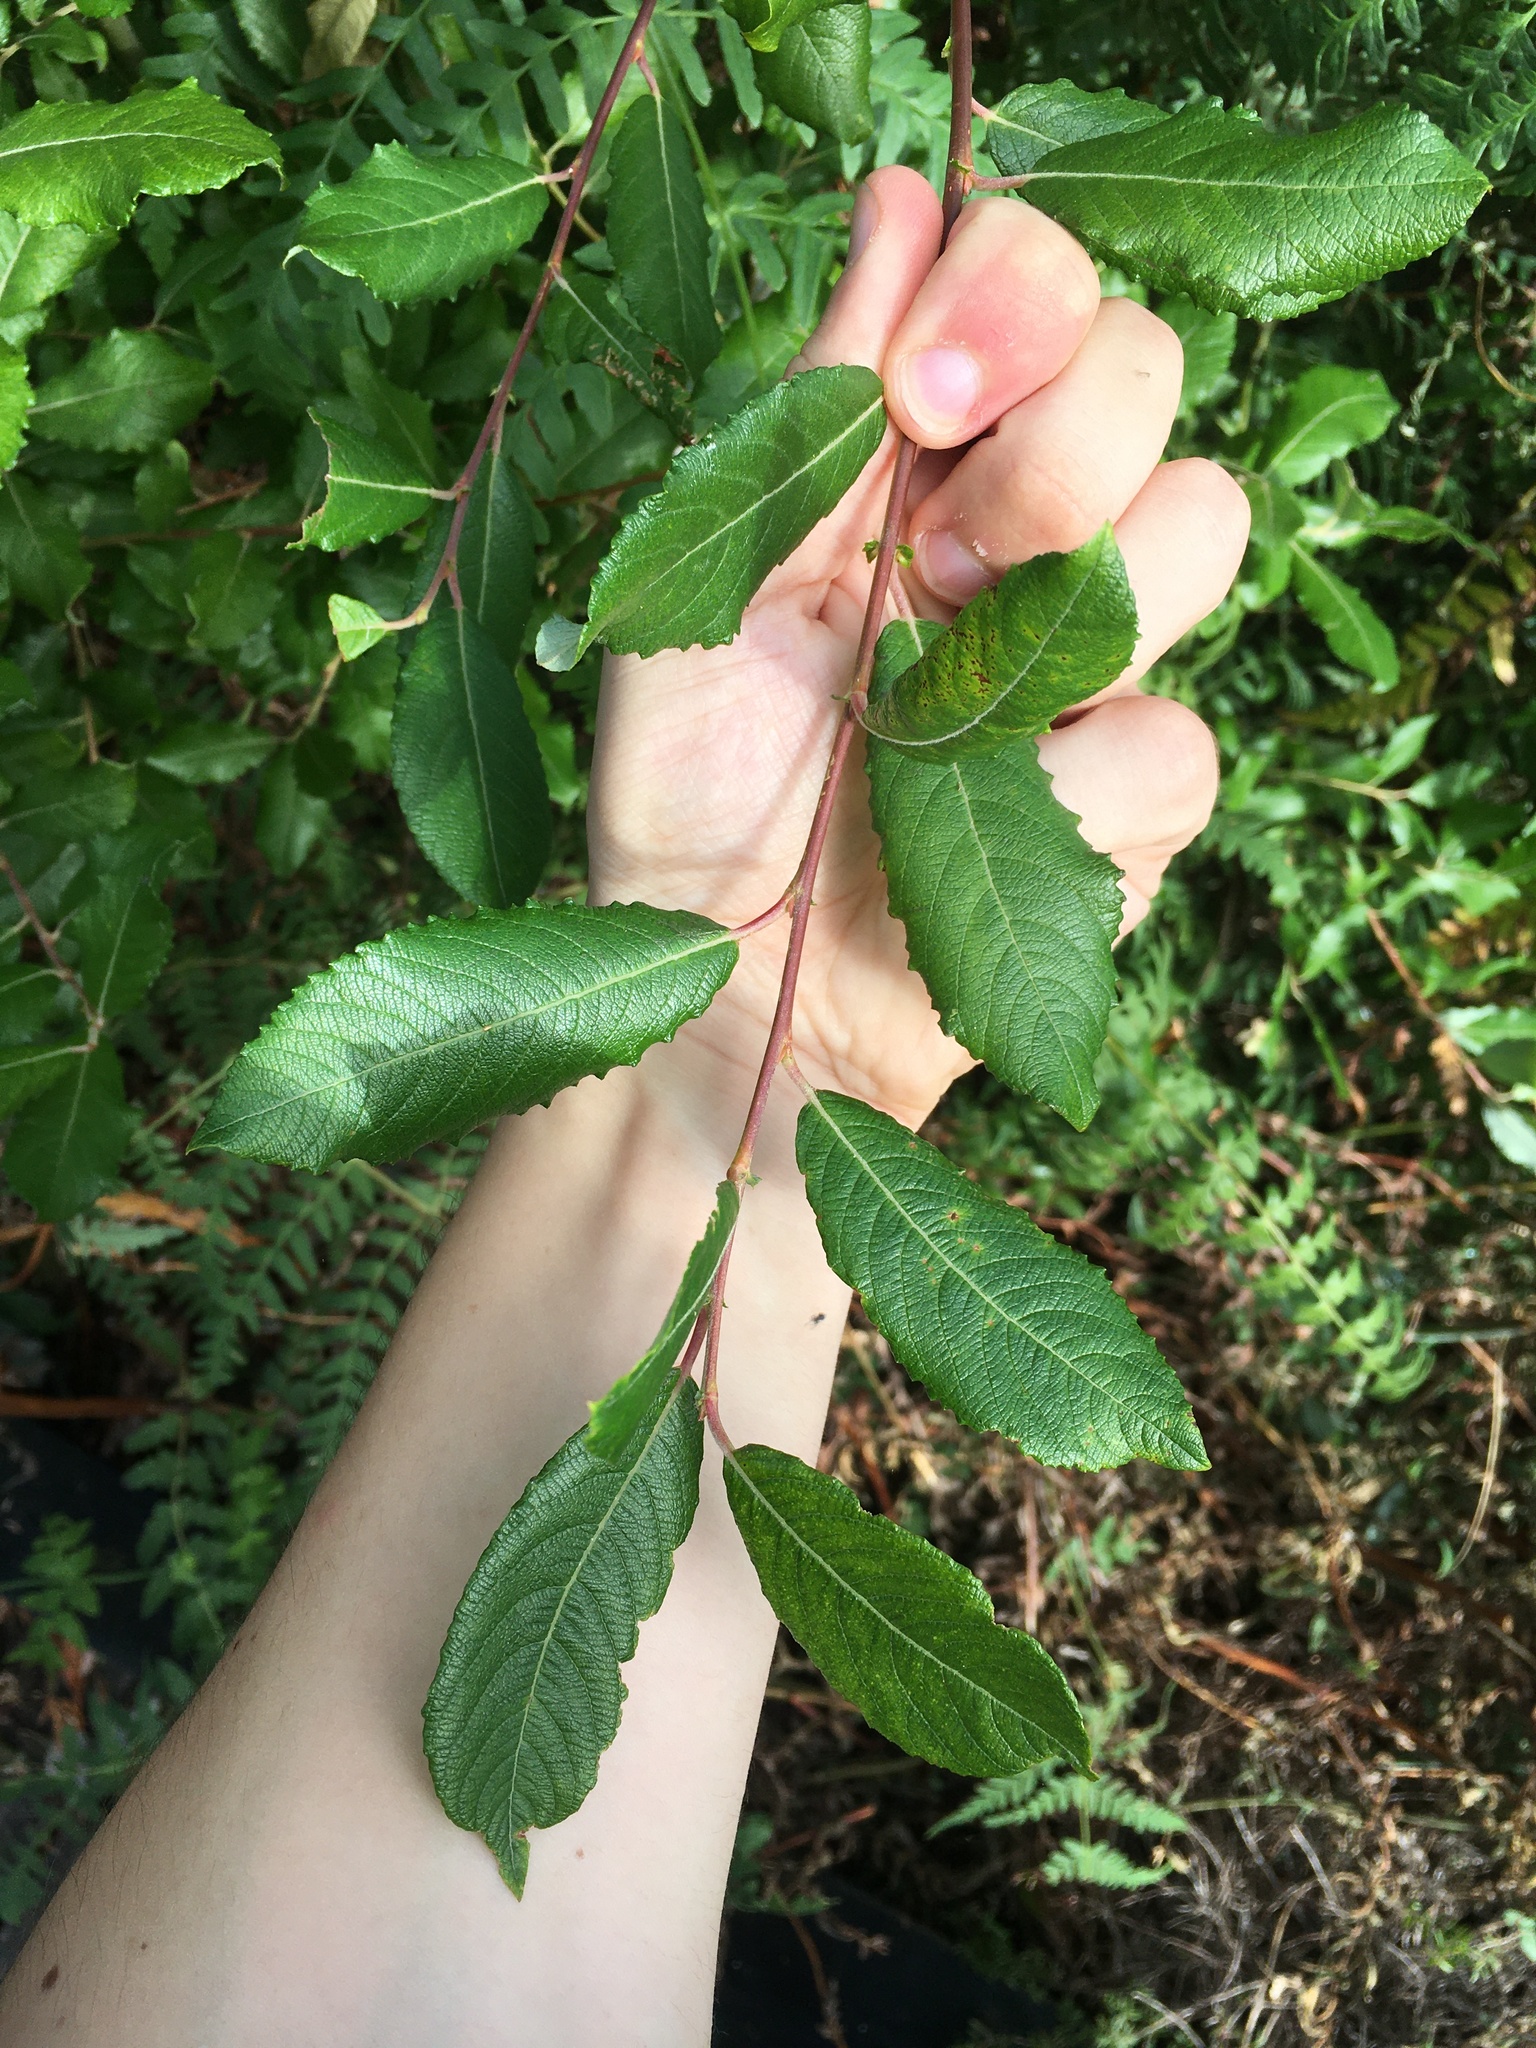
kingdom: Plantae
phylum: Tracheophyta
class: Magnoliopsida
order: Malpighiales
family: Salicaceae
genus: Salix
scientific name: Salix cinerea
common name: Common sallow
